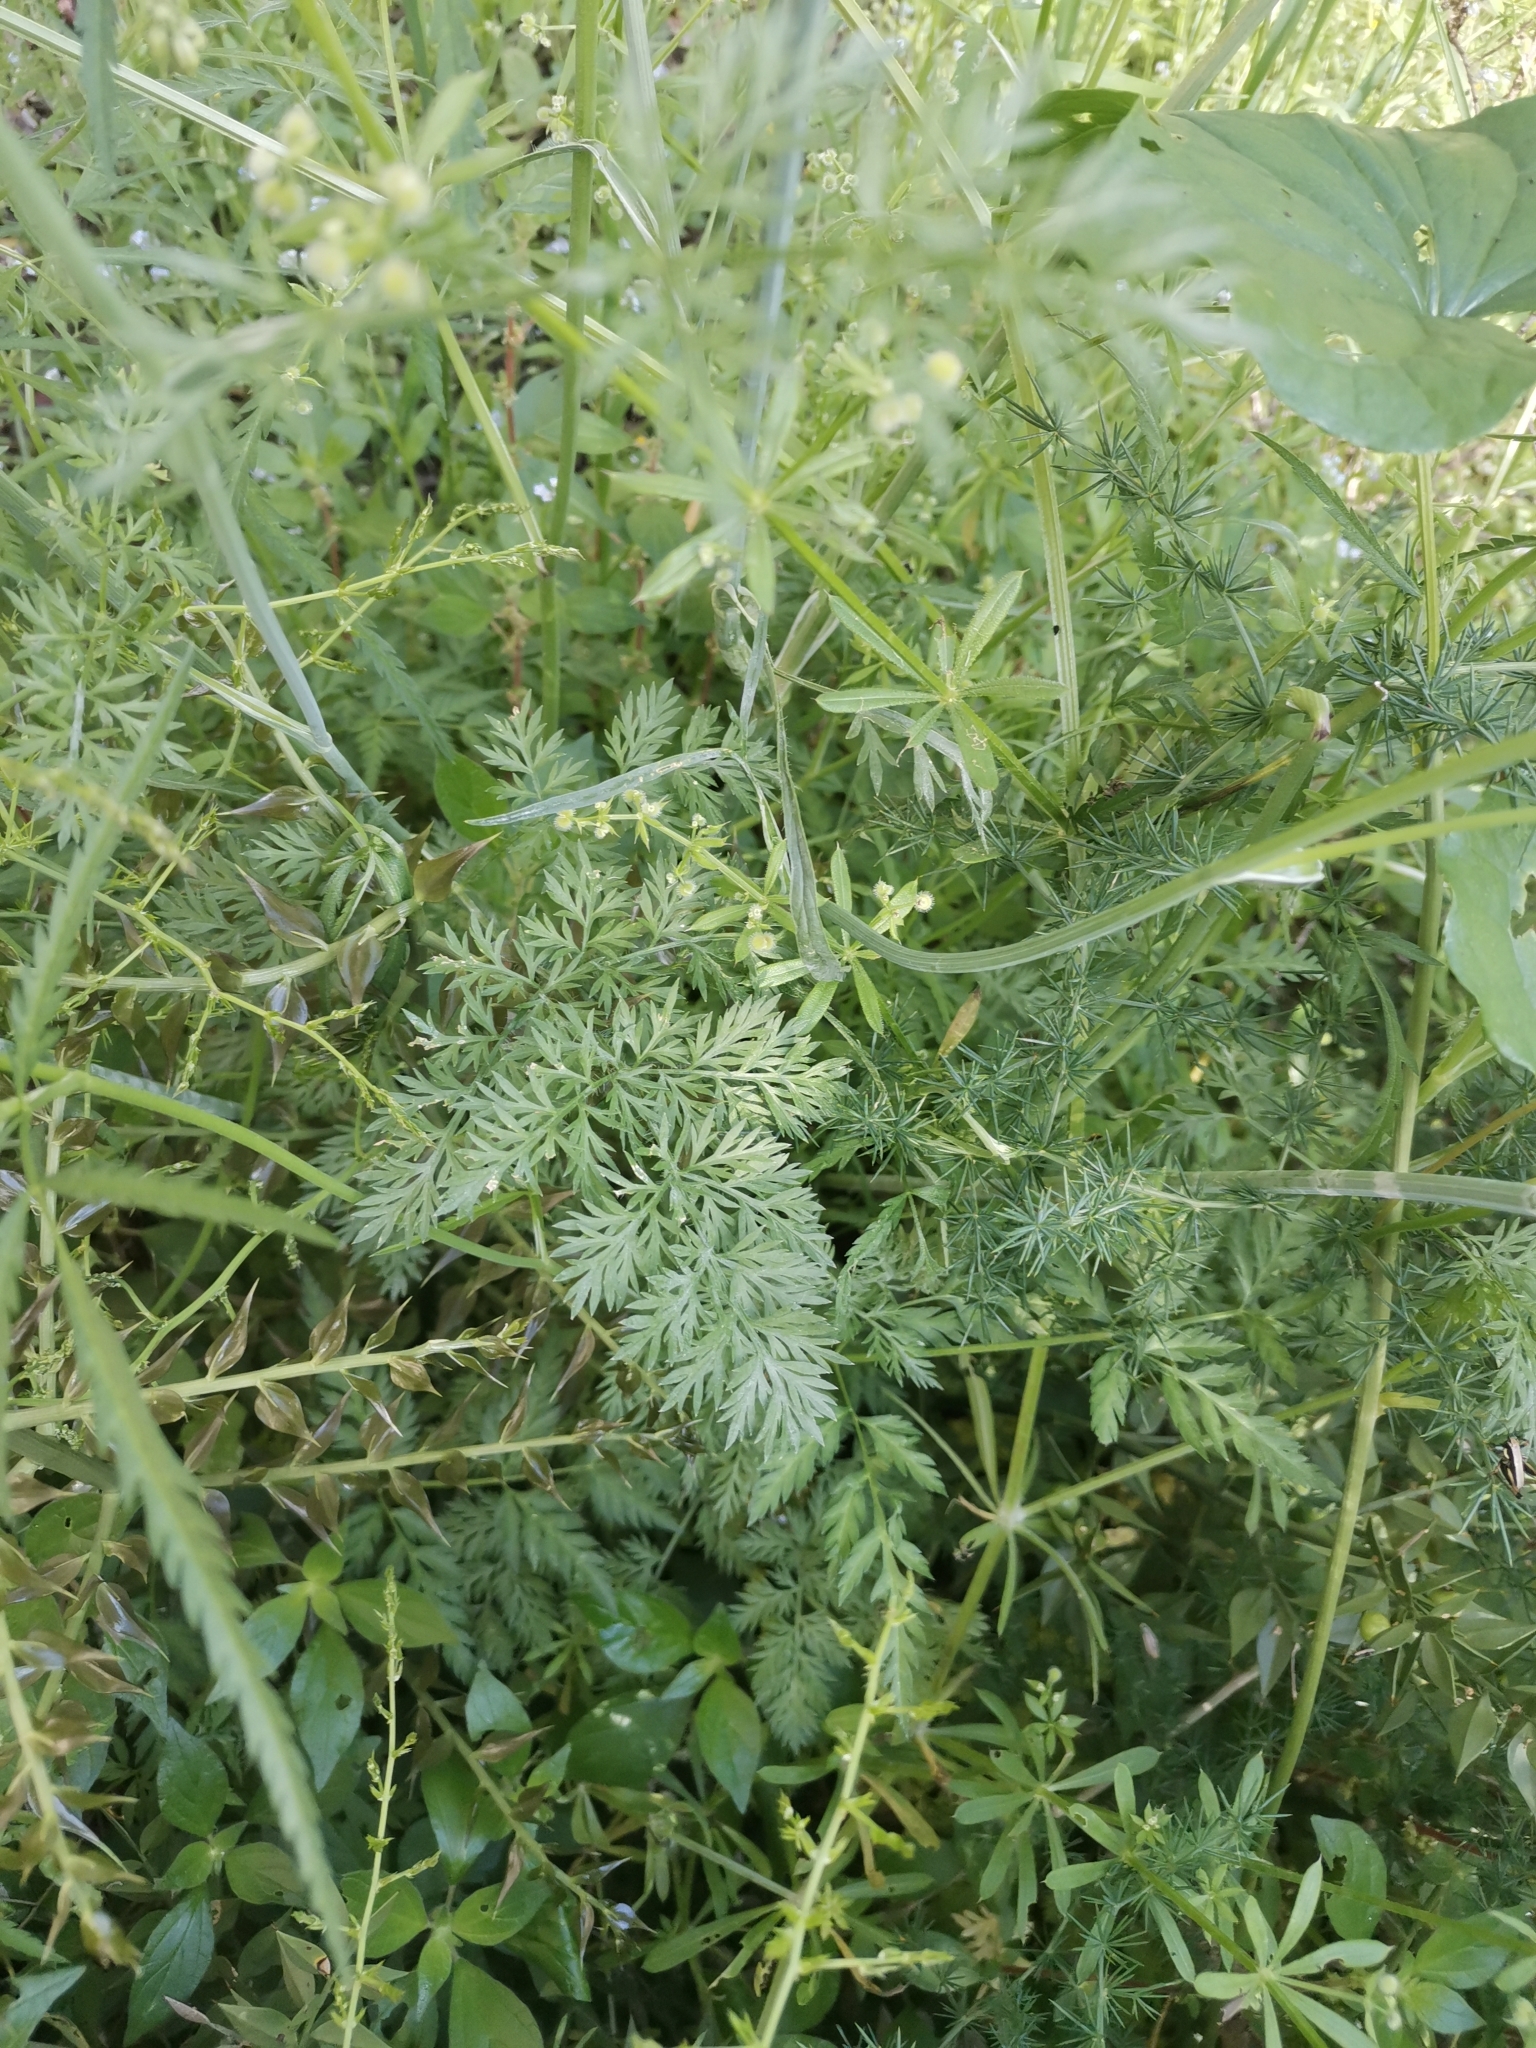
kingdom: Plantae
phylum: Tracheophyta
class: Magnoliopsida
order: Apiales
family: Apiaceae
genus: Orlaya
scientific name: Orlaya grandiflora
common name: White lace flower
